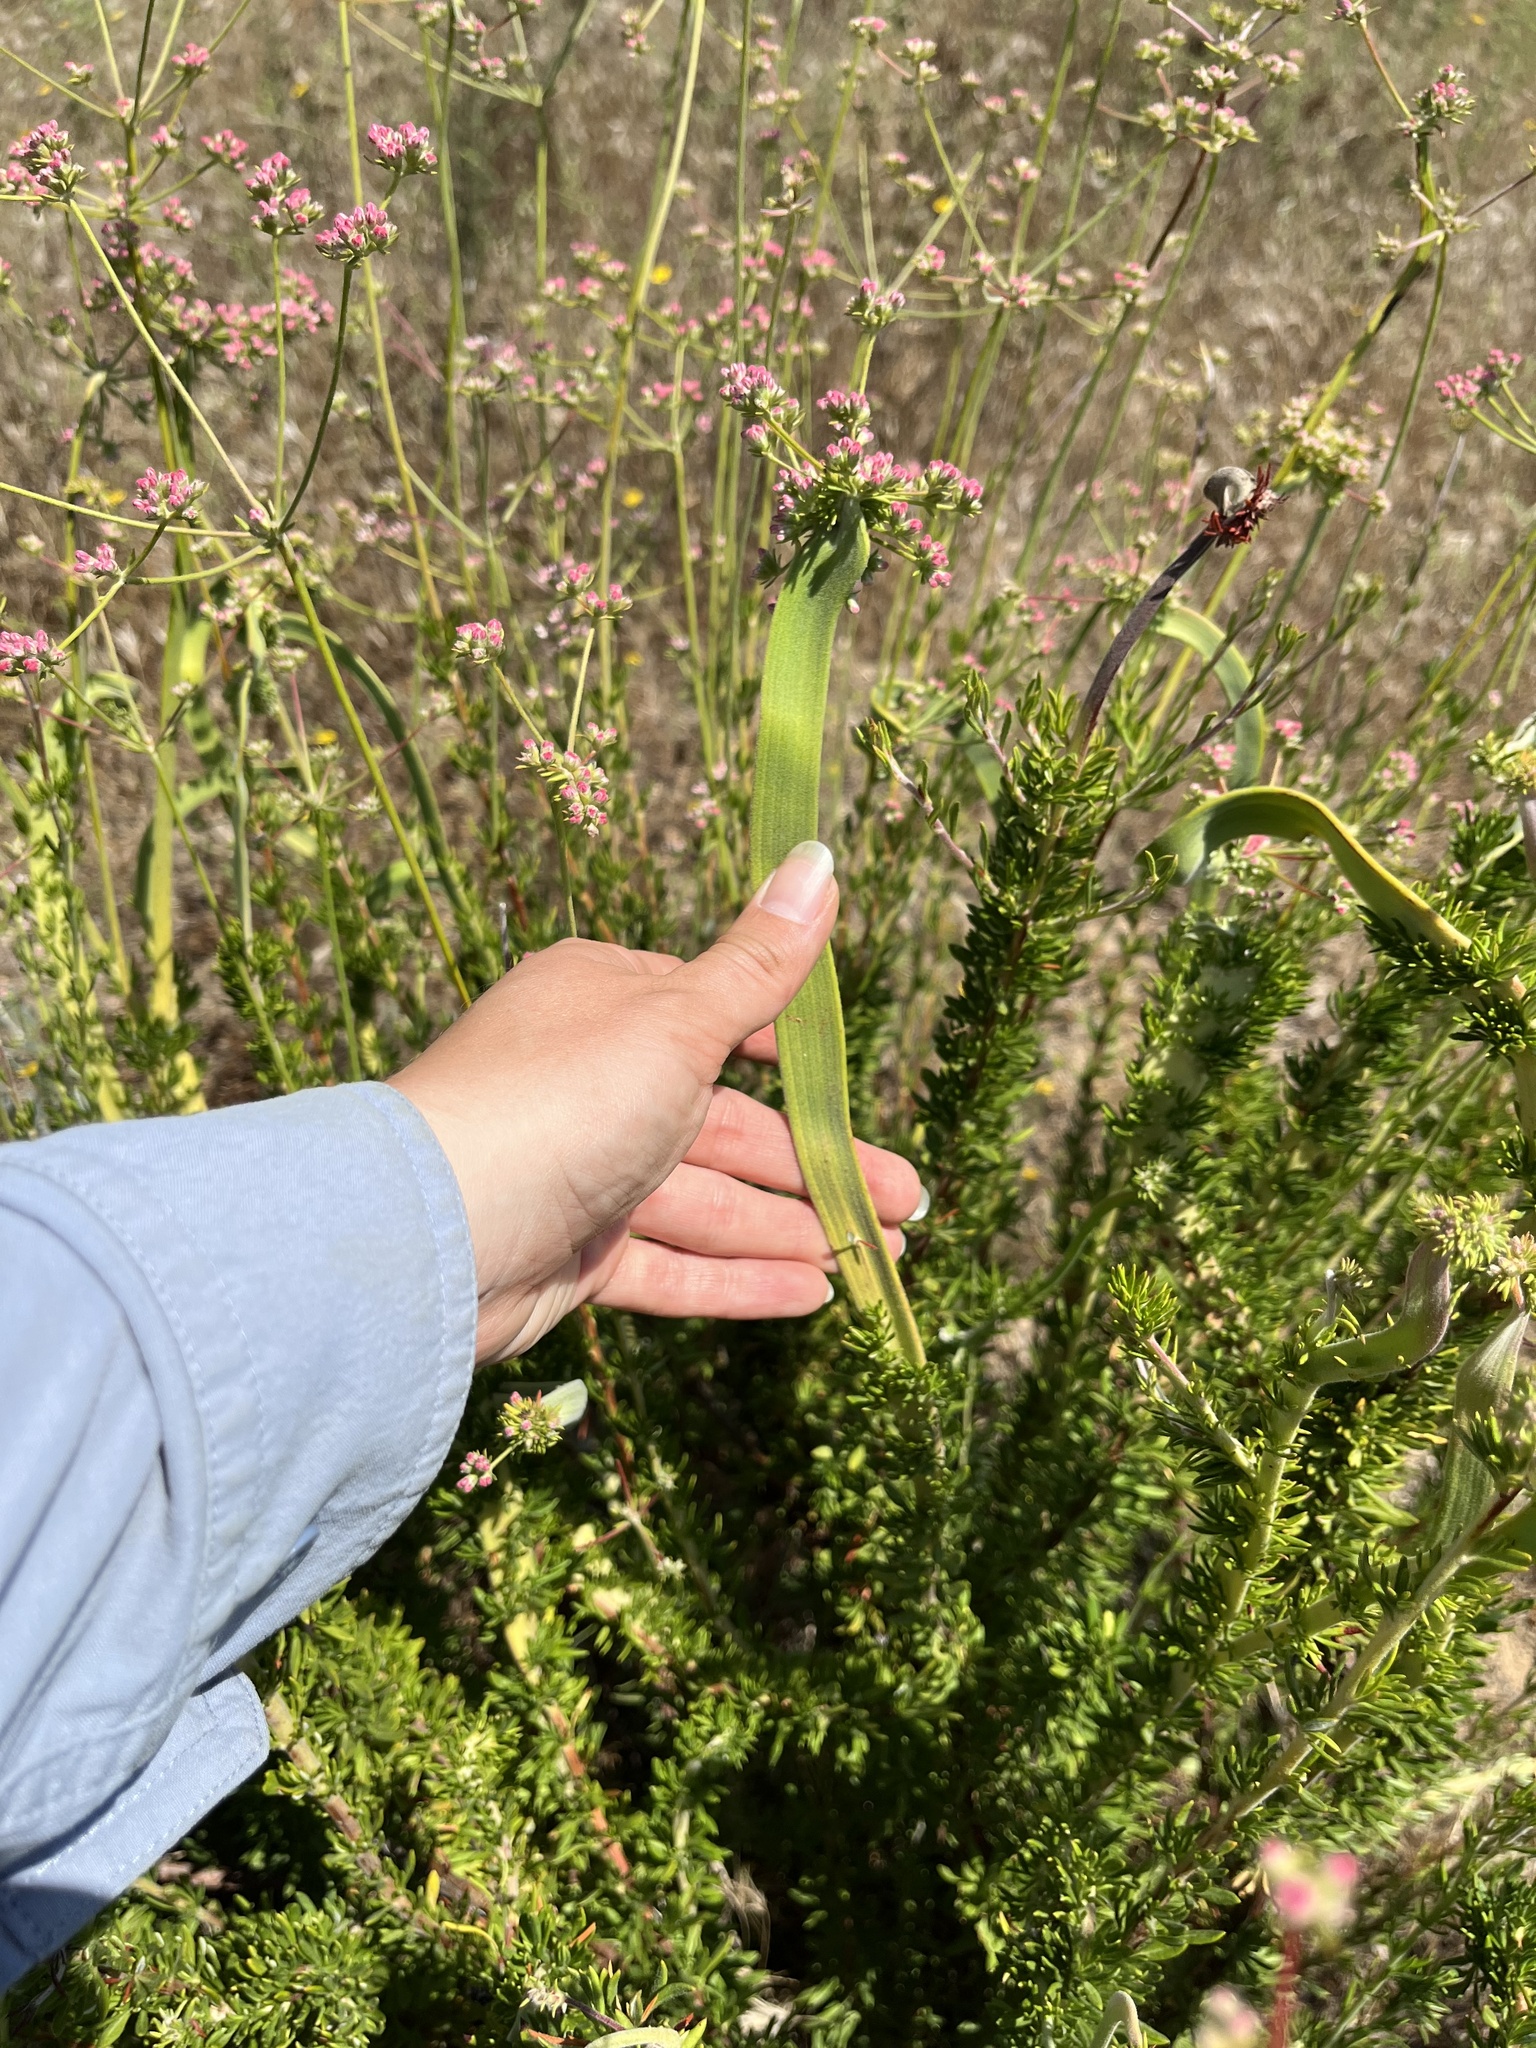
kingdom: Plantae
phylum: Tracheophyta
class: Magnoliopsida
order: Caryophyllales
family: Polygonaceae
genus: Eriogonum
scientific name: Eriogonum fasciculatum
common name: California wild buckwheat
